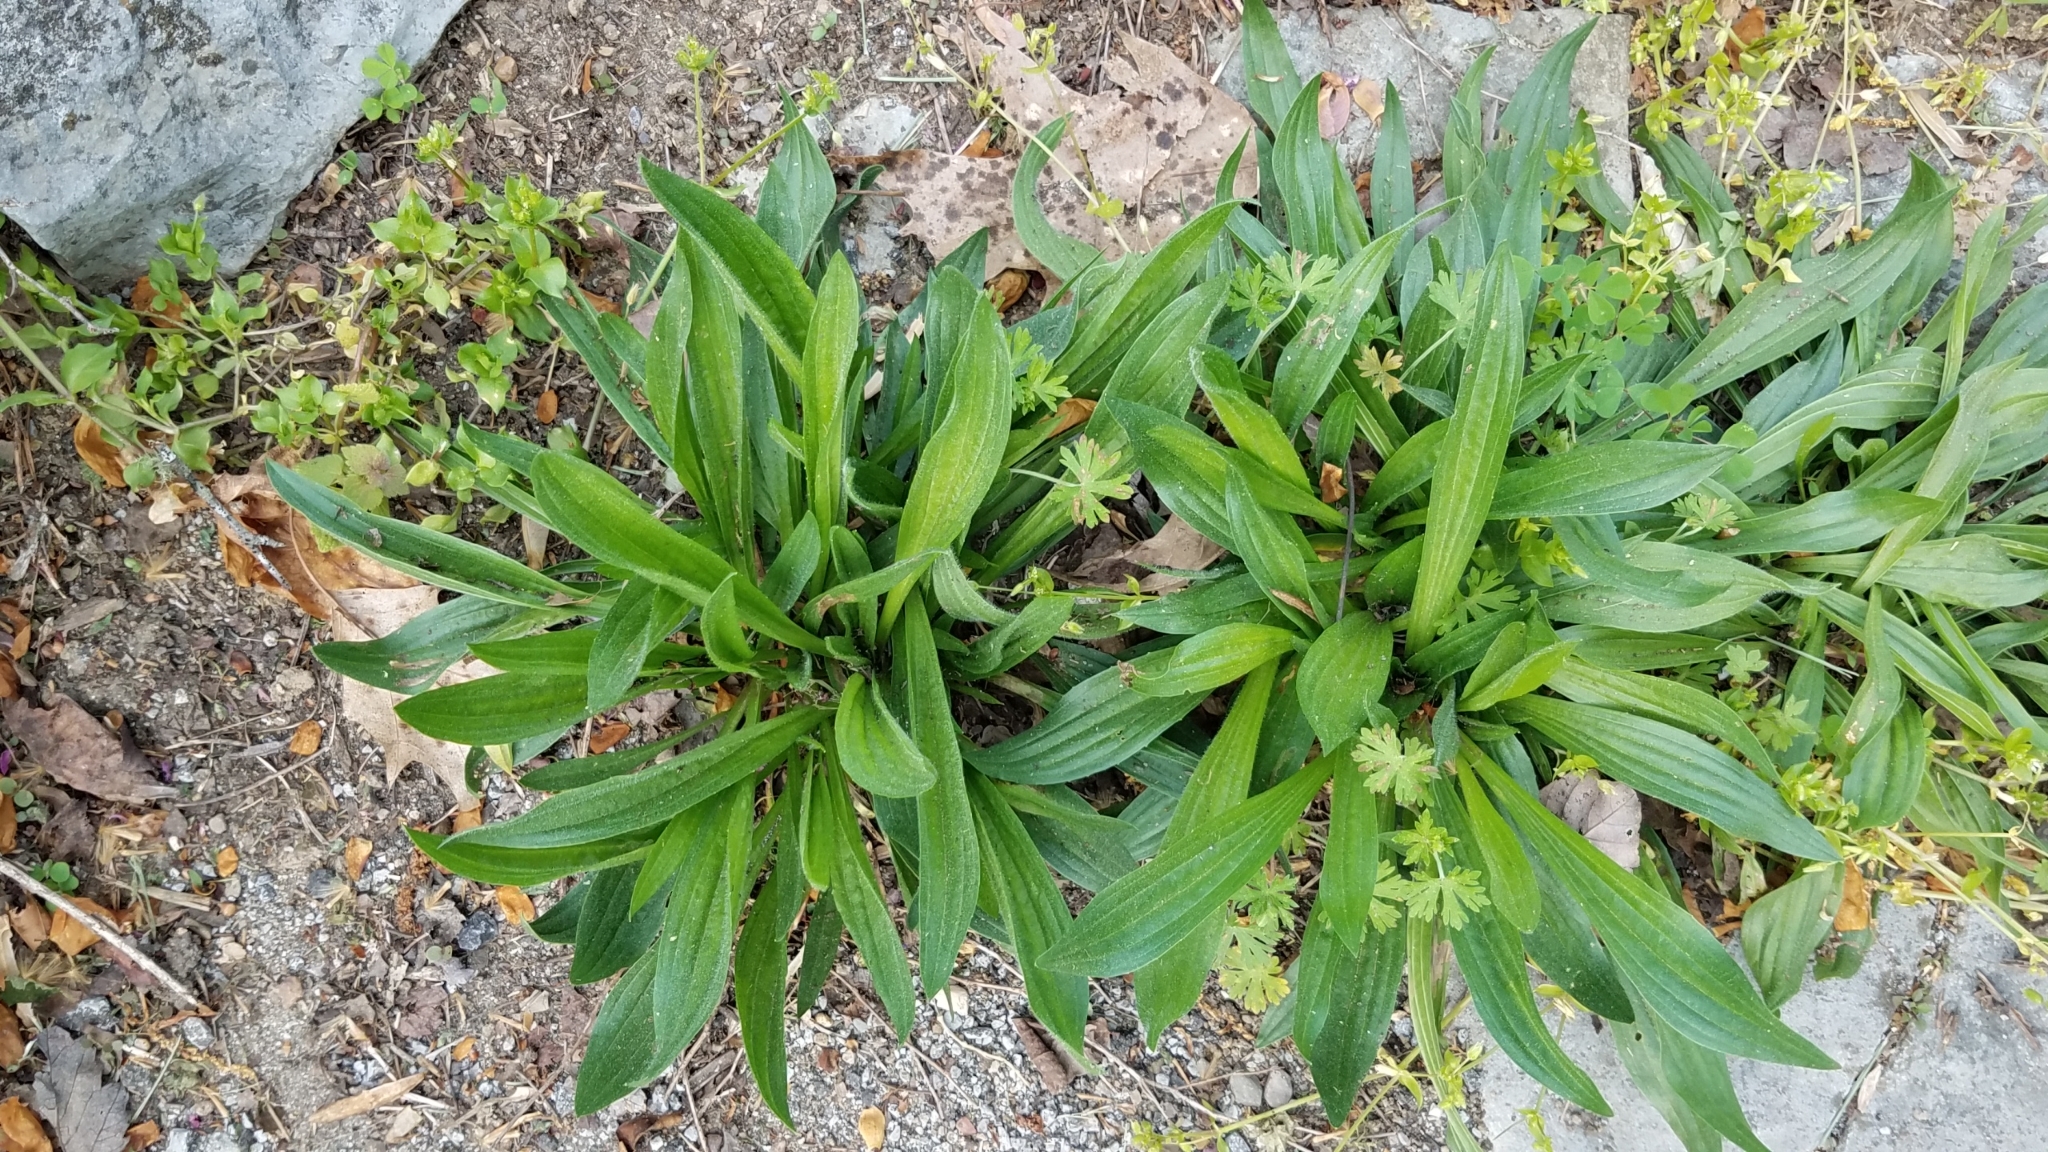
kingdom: Plantae
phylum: Tracheophyta
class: Magnoliopsida
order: Lamiales
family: Plantaginaceae
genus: Plantago
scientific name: Plantago lanceolata
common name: Ribwort plantain
